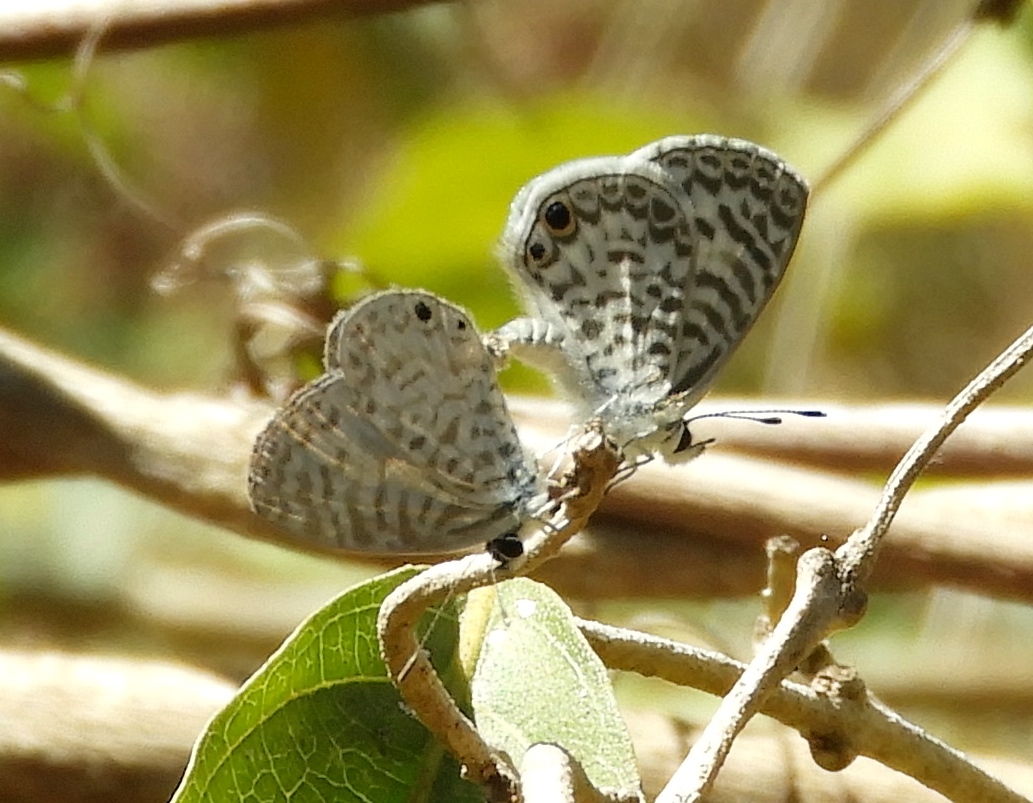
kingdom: Animalia
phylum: Arthropoda
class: Insecta
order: Lepidoptera
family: Lycaenidae
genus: Leptotes
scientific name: Leptotes theonus
